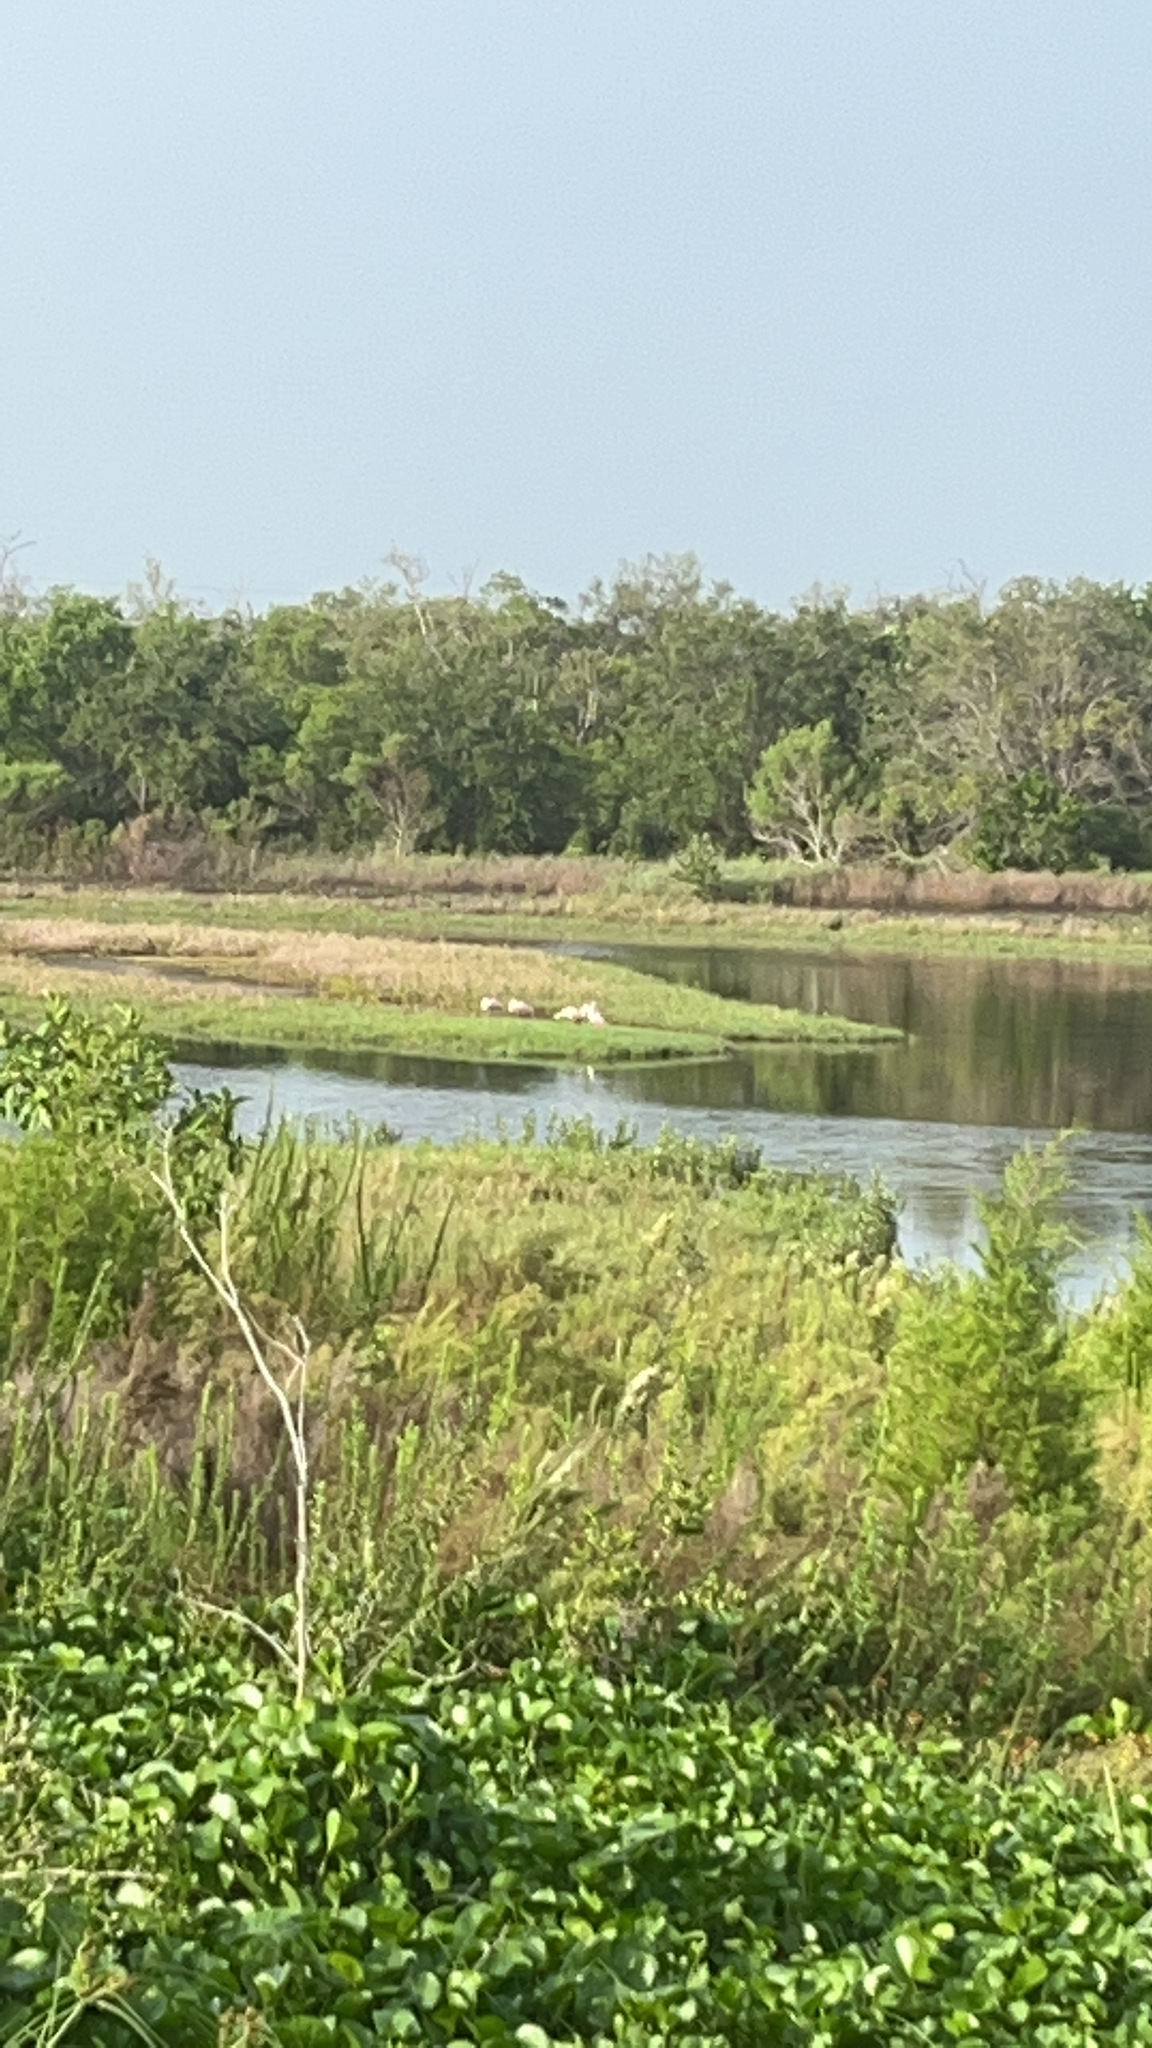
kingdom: Animalia
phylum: Chordata
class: Aves
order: Pelecaniformes
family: Threskiornithidae
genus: Platalea
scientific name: Platalea ajaja
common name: Roseate spoonbill
